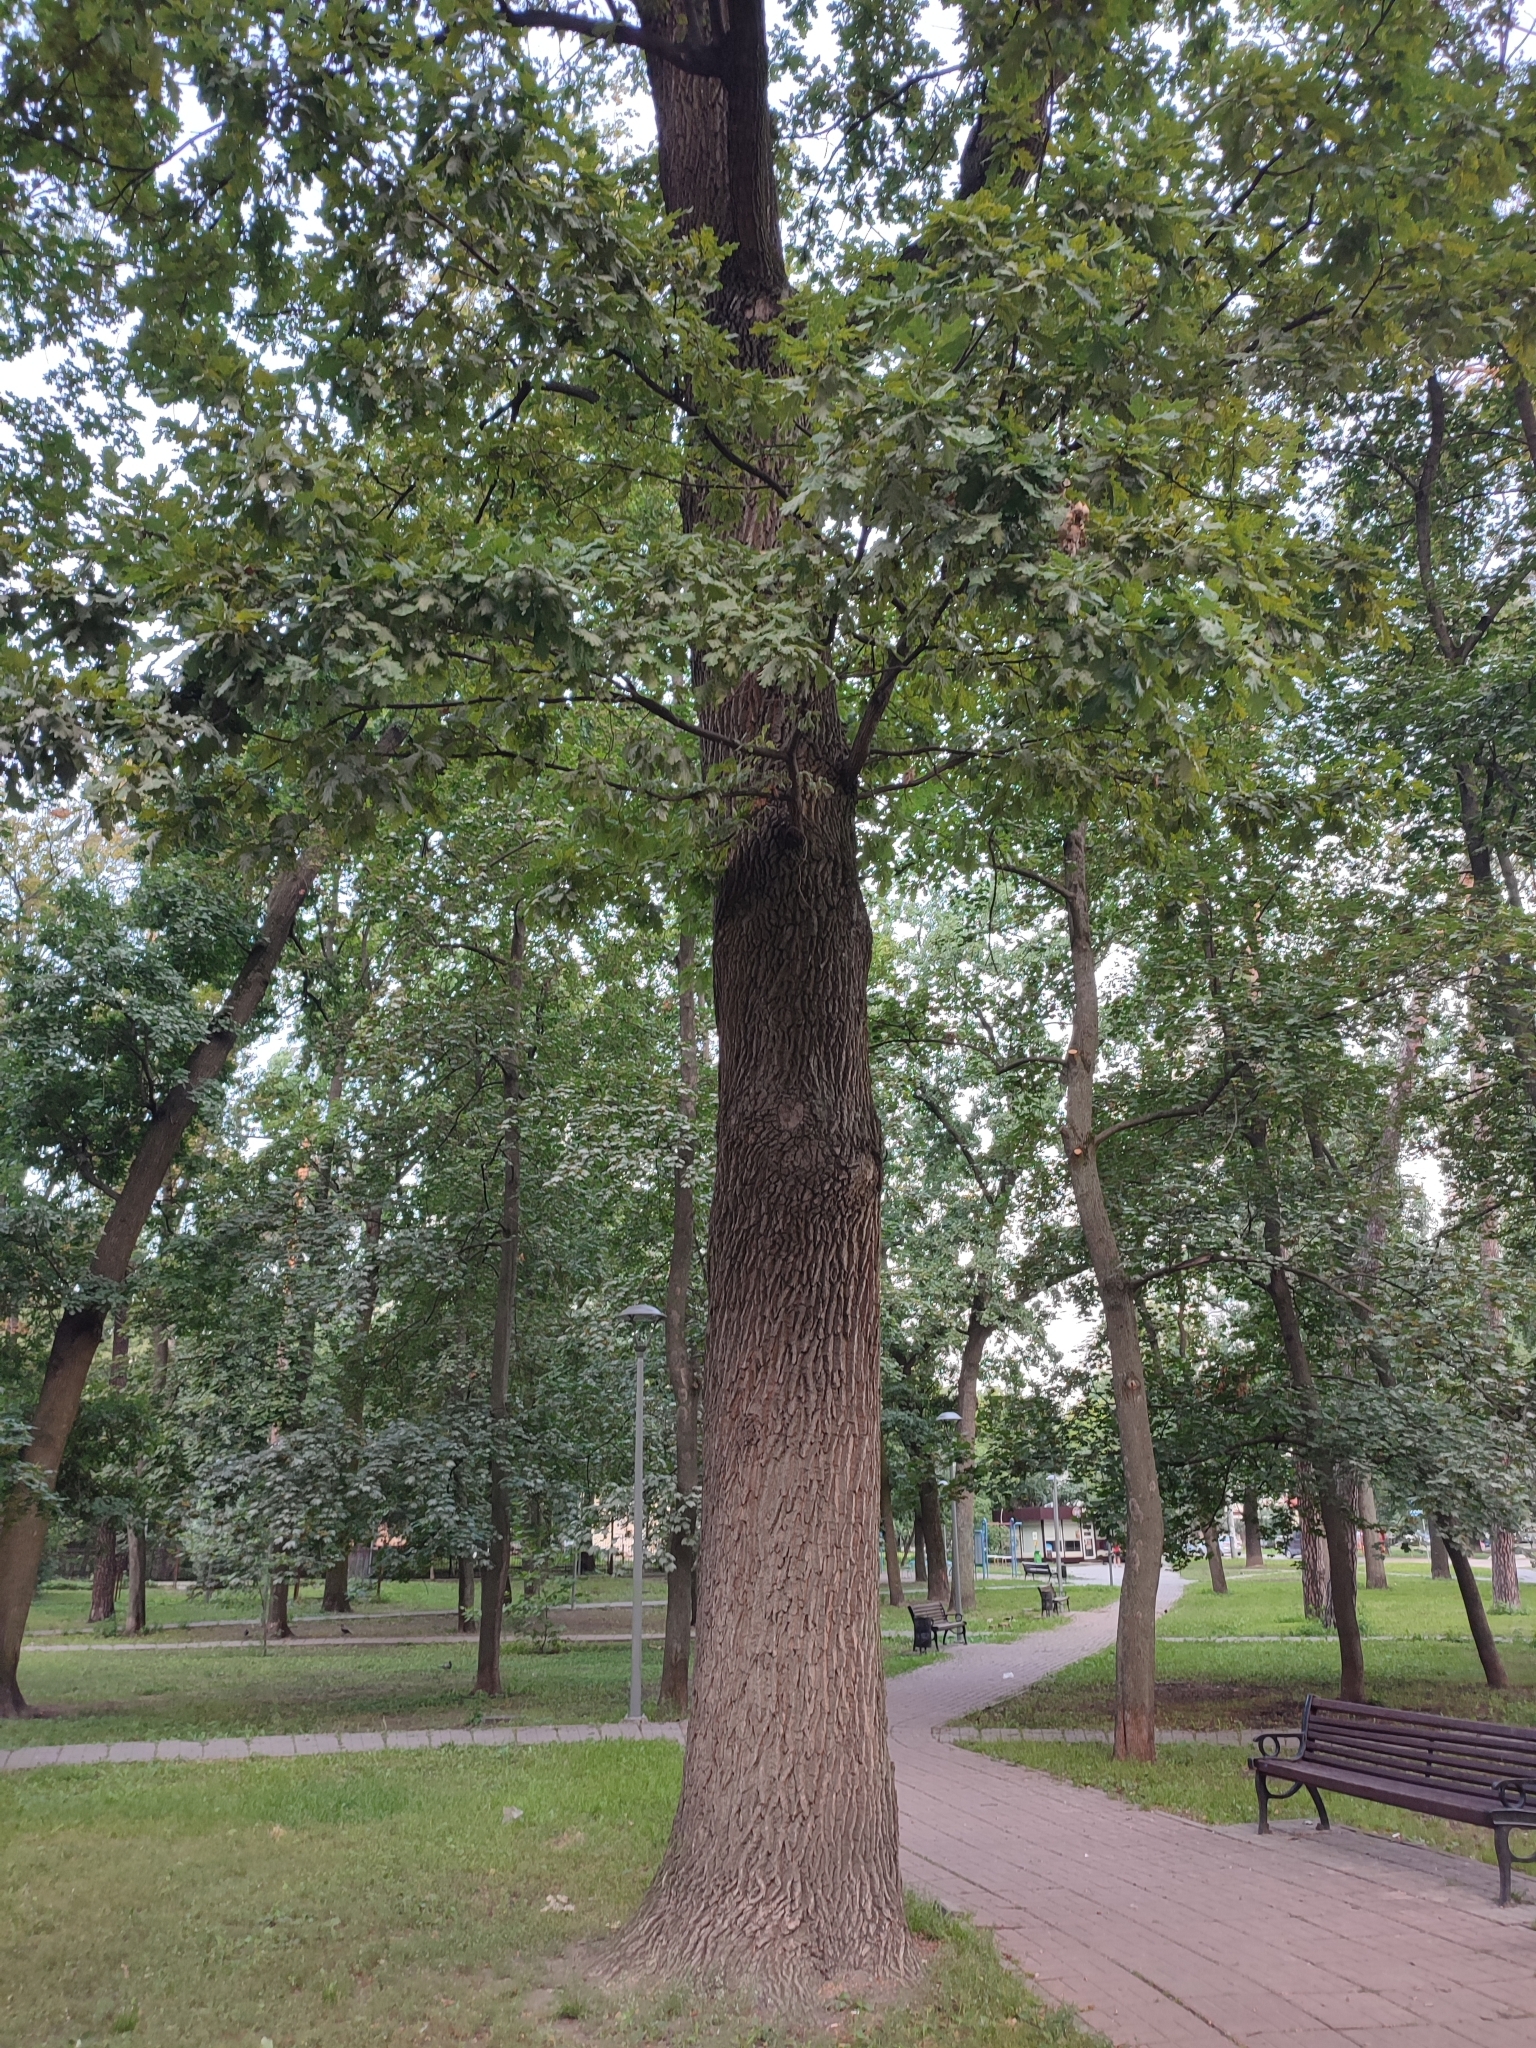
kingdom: Plantae
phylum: Tracheophyta
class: Magnoliopsida
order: Fagales
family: Fagaceae
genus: Quercus
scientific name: Quercus robur
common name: Pedunculate oak
